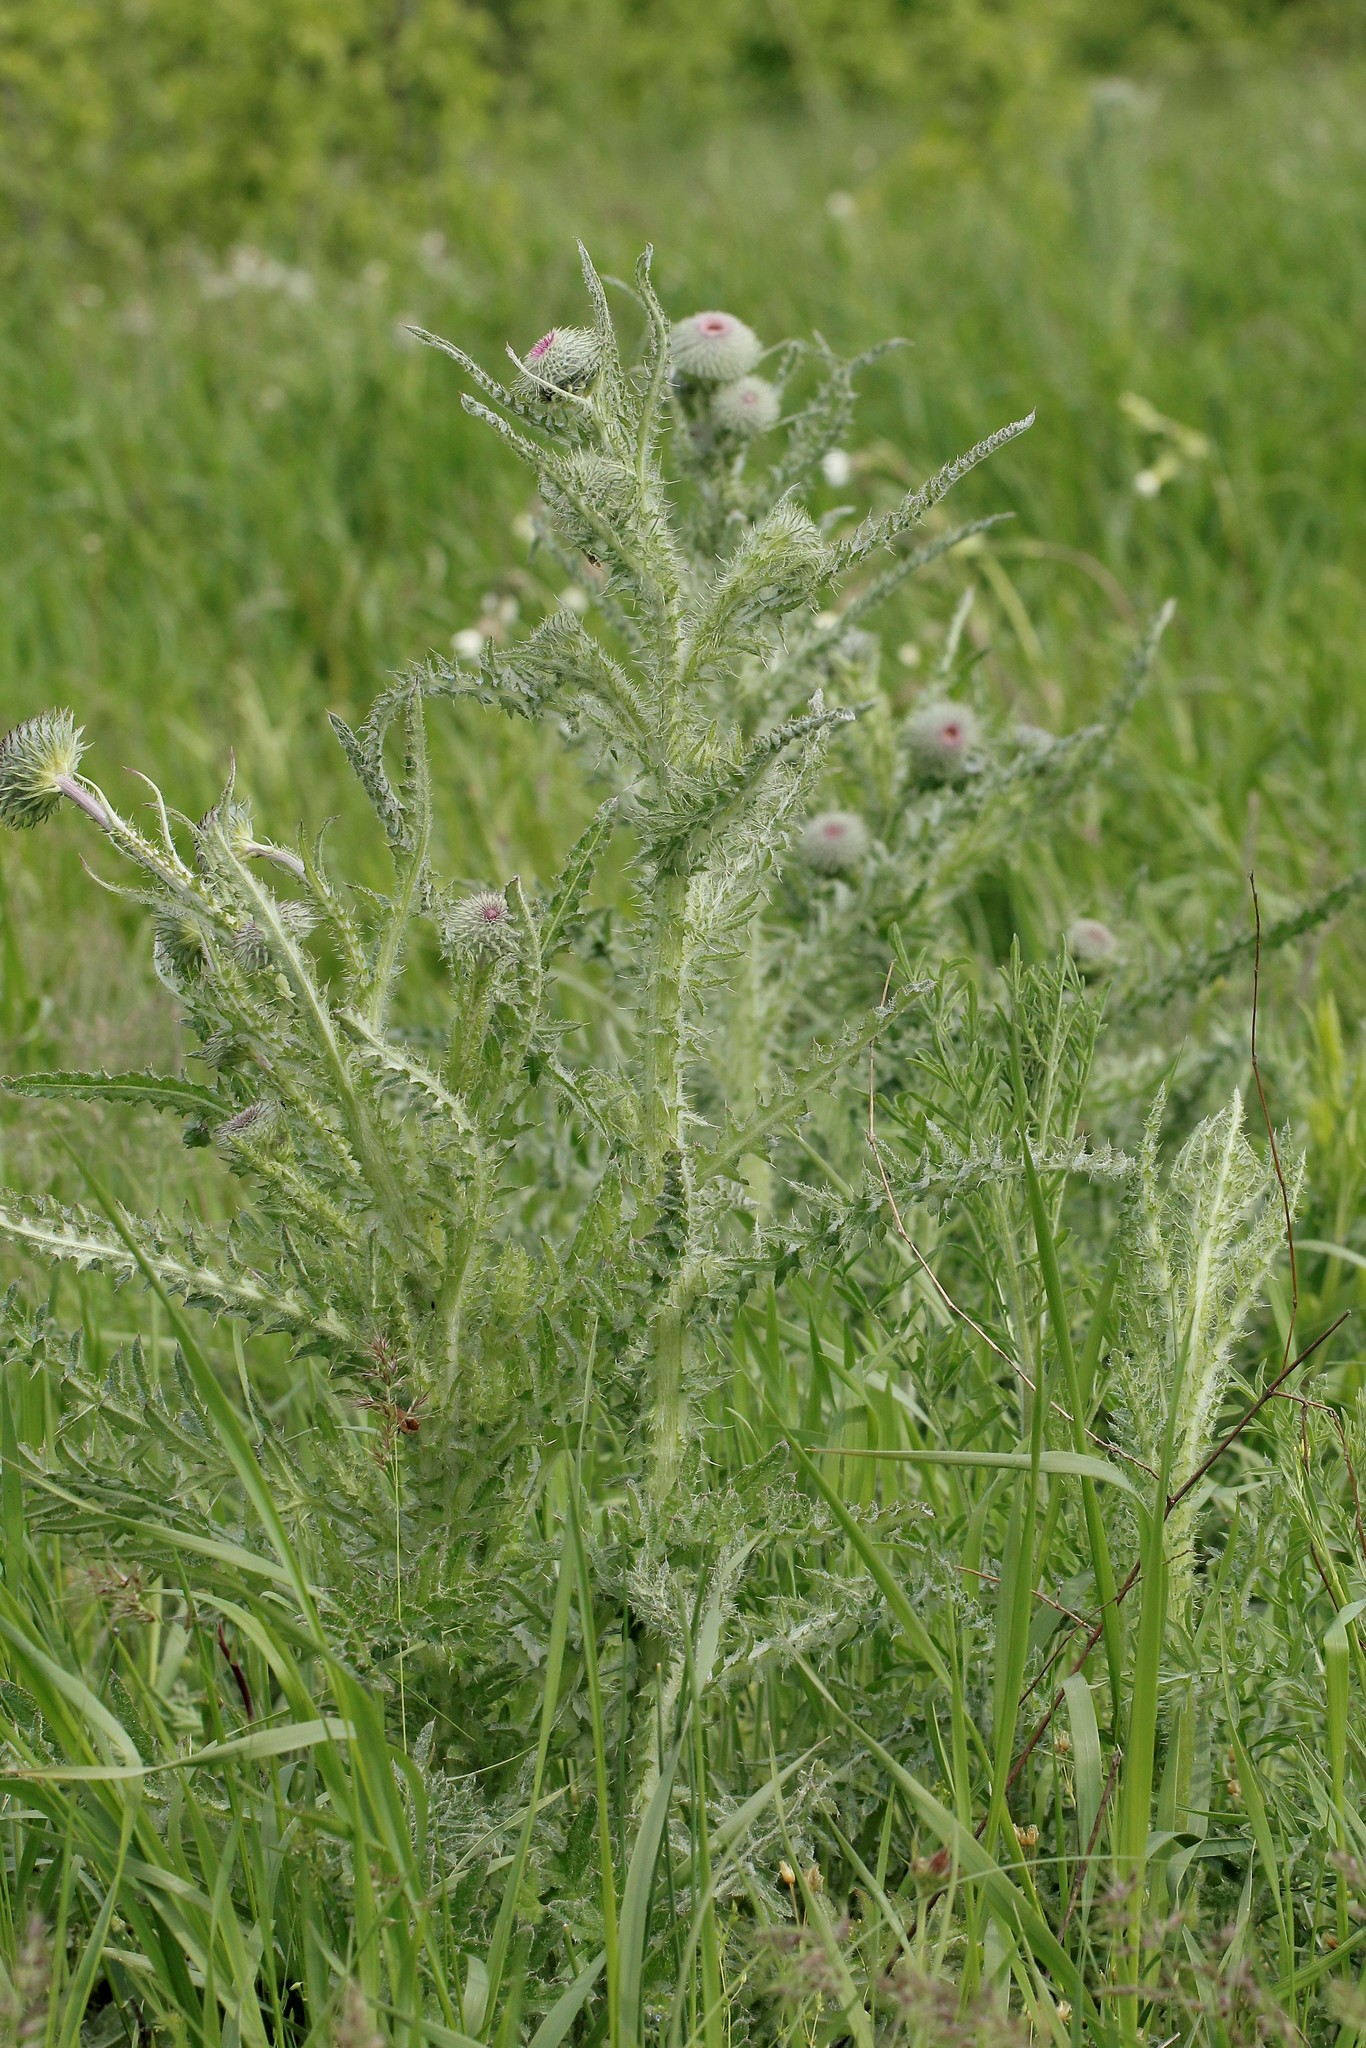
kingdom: Plantae
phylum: Tracheophyta
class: Magnoliopsida
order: Asterales
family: Asteraceae
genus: Carduus
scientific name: Carduus uncinatus
